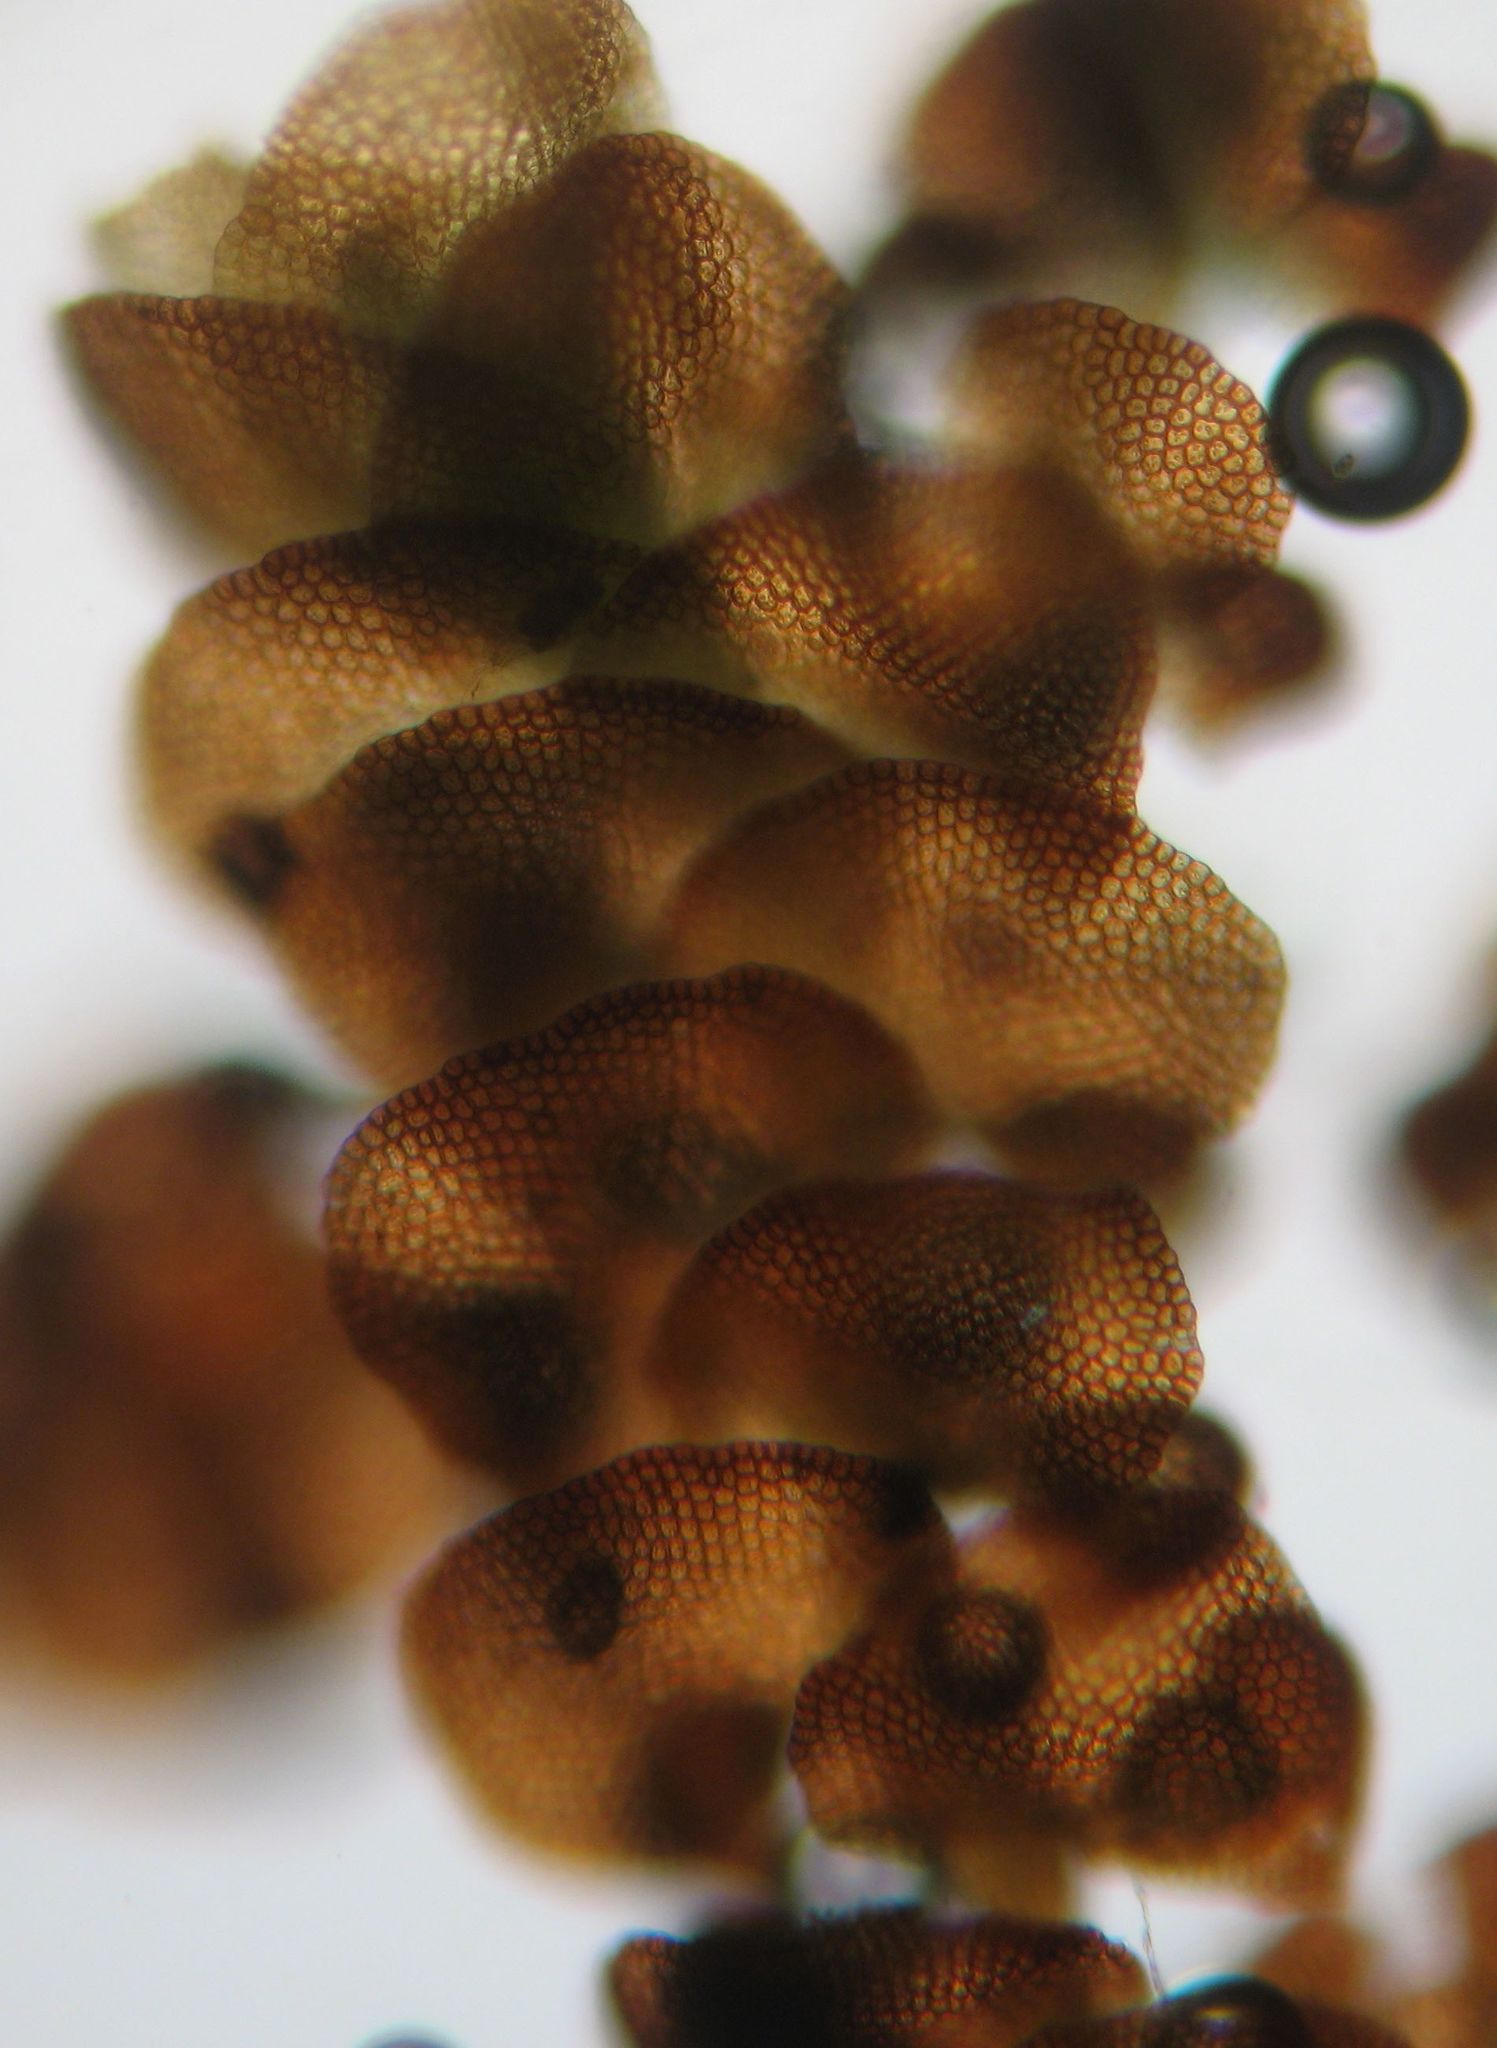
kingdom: Plantae
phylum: Marchantiophyta
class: Jungermanniopsida
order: Porellales
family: Frullaniaceae
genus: Frullania
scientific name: Frullania pentapleura
